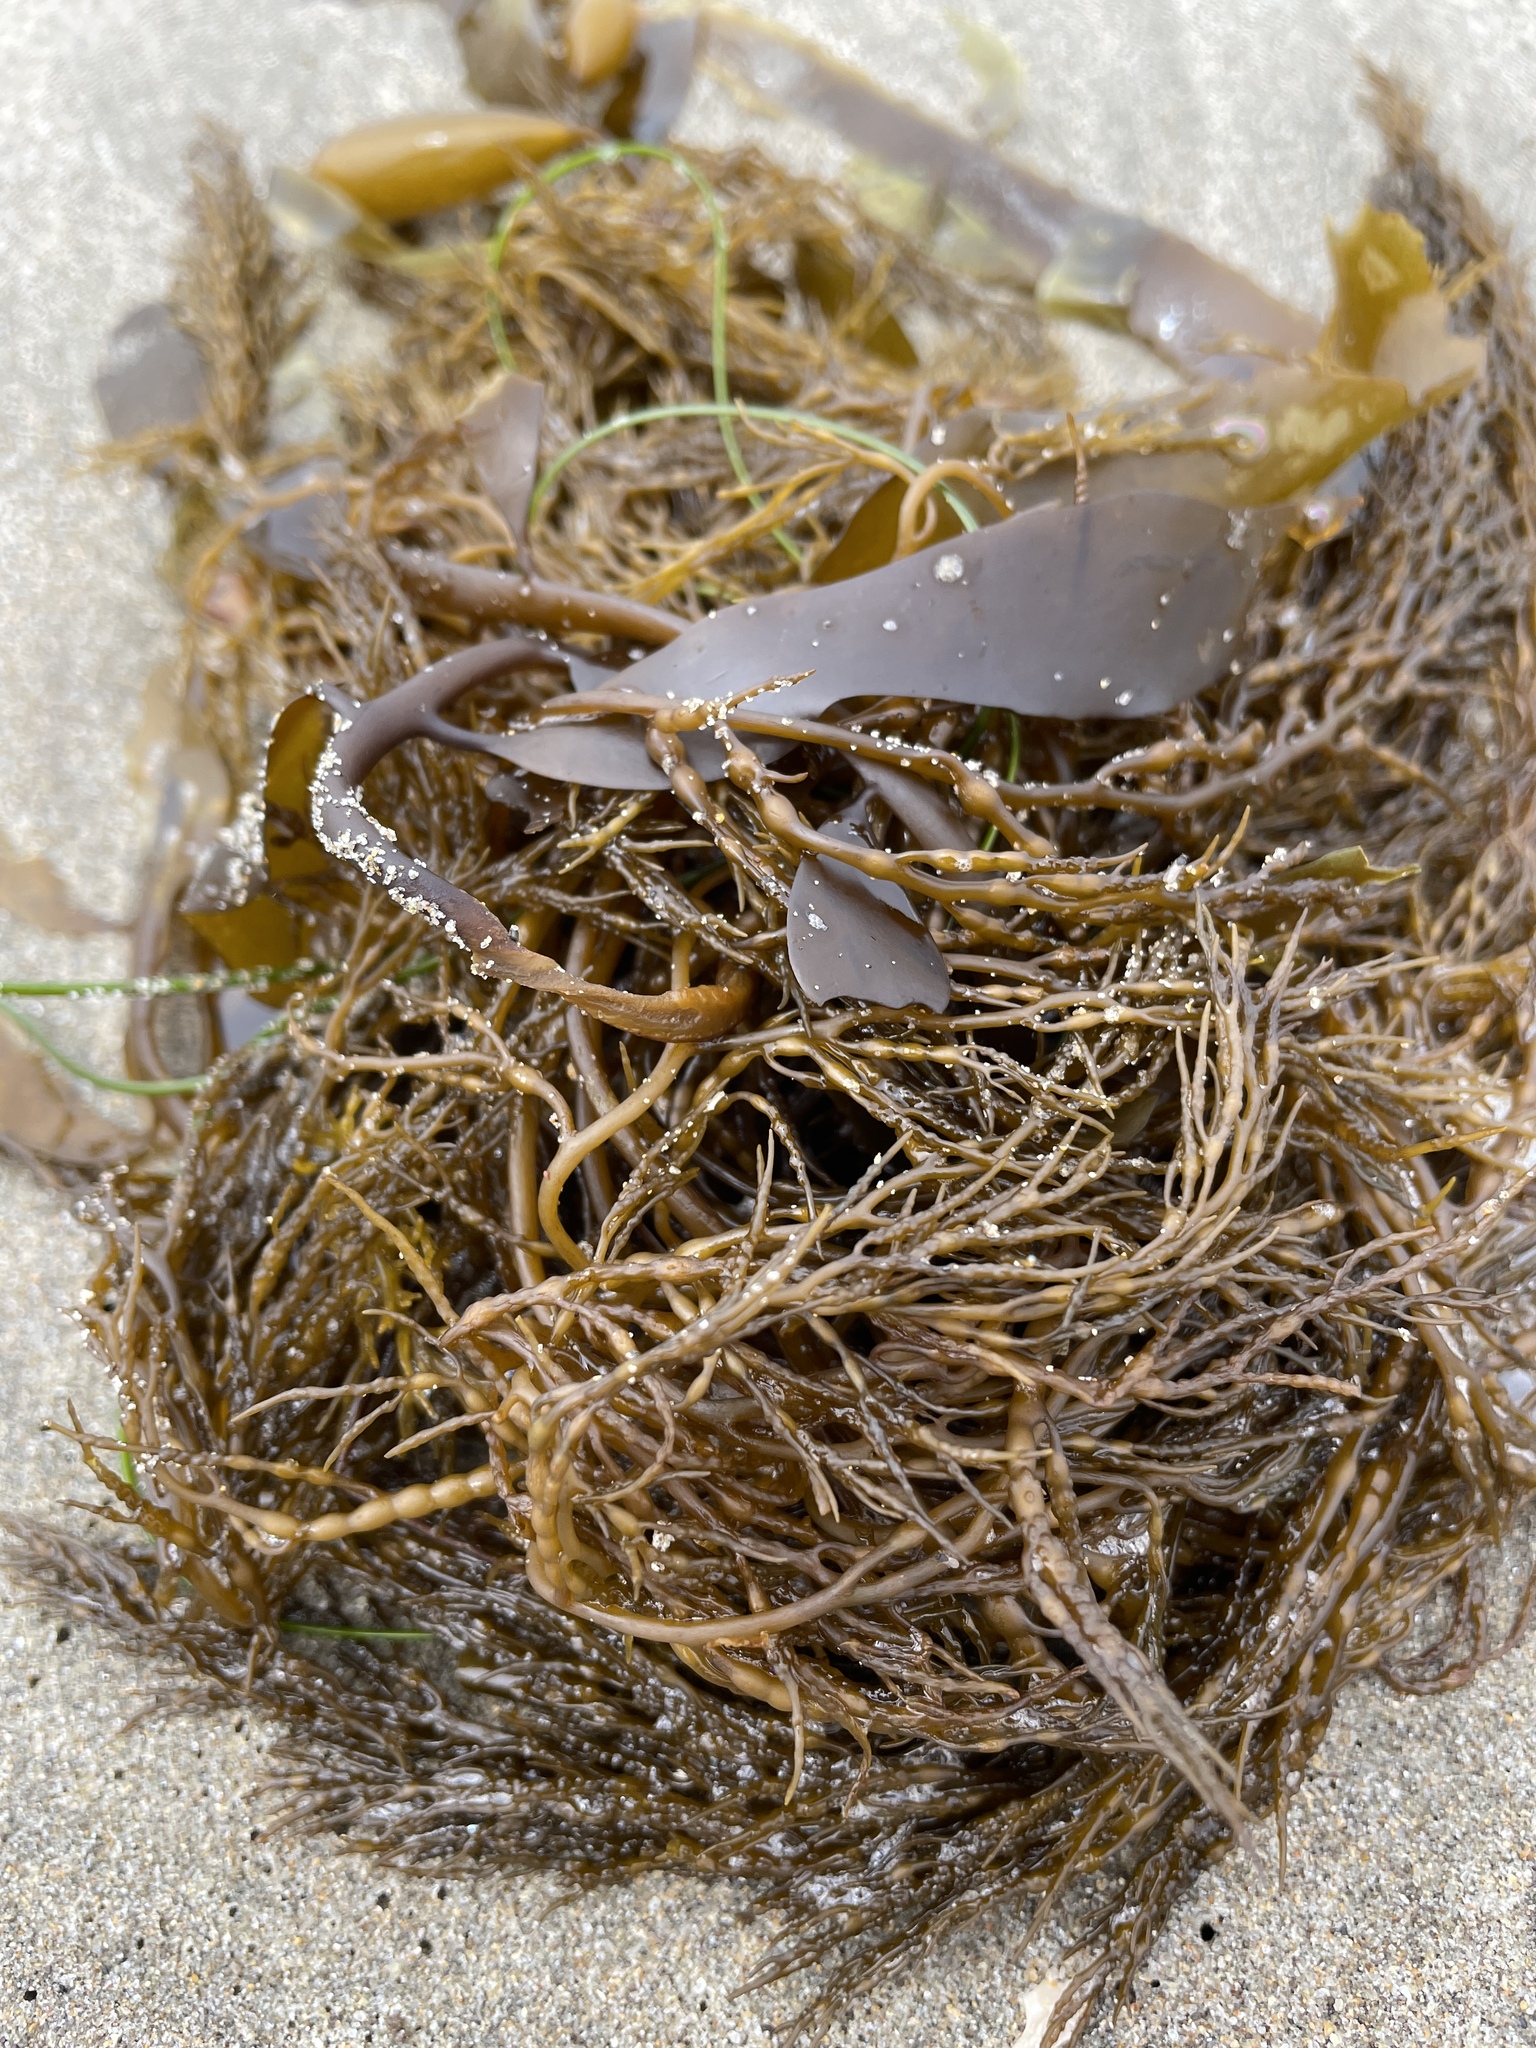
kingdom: Chromista
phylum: Ochrophyta
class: Phaeophyceae
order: Fucales
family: Sargassaceae
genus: Stephanocystis
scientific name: Stephanocystis
